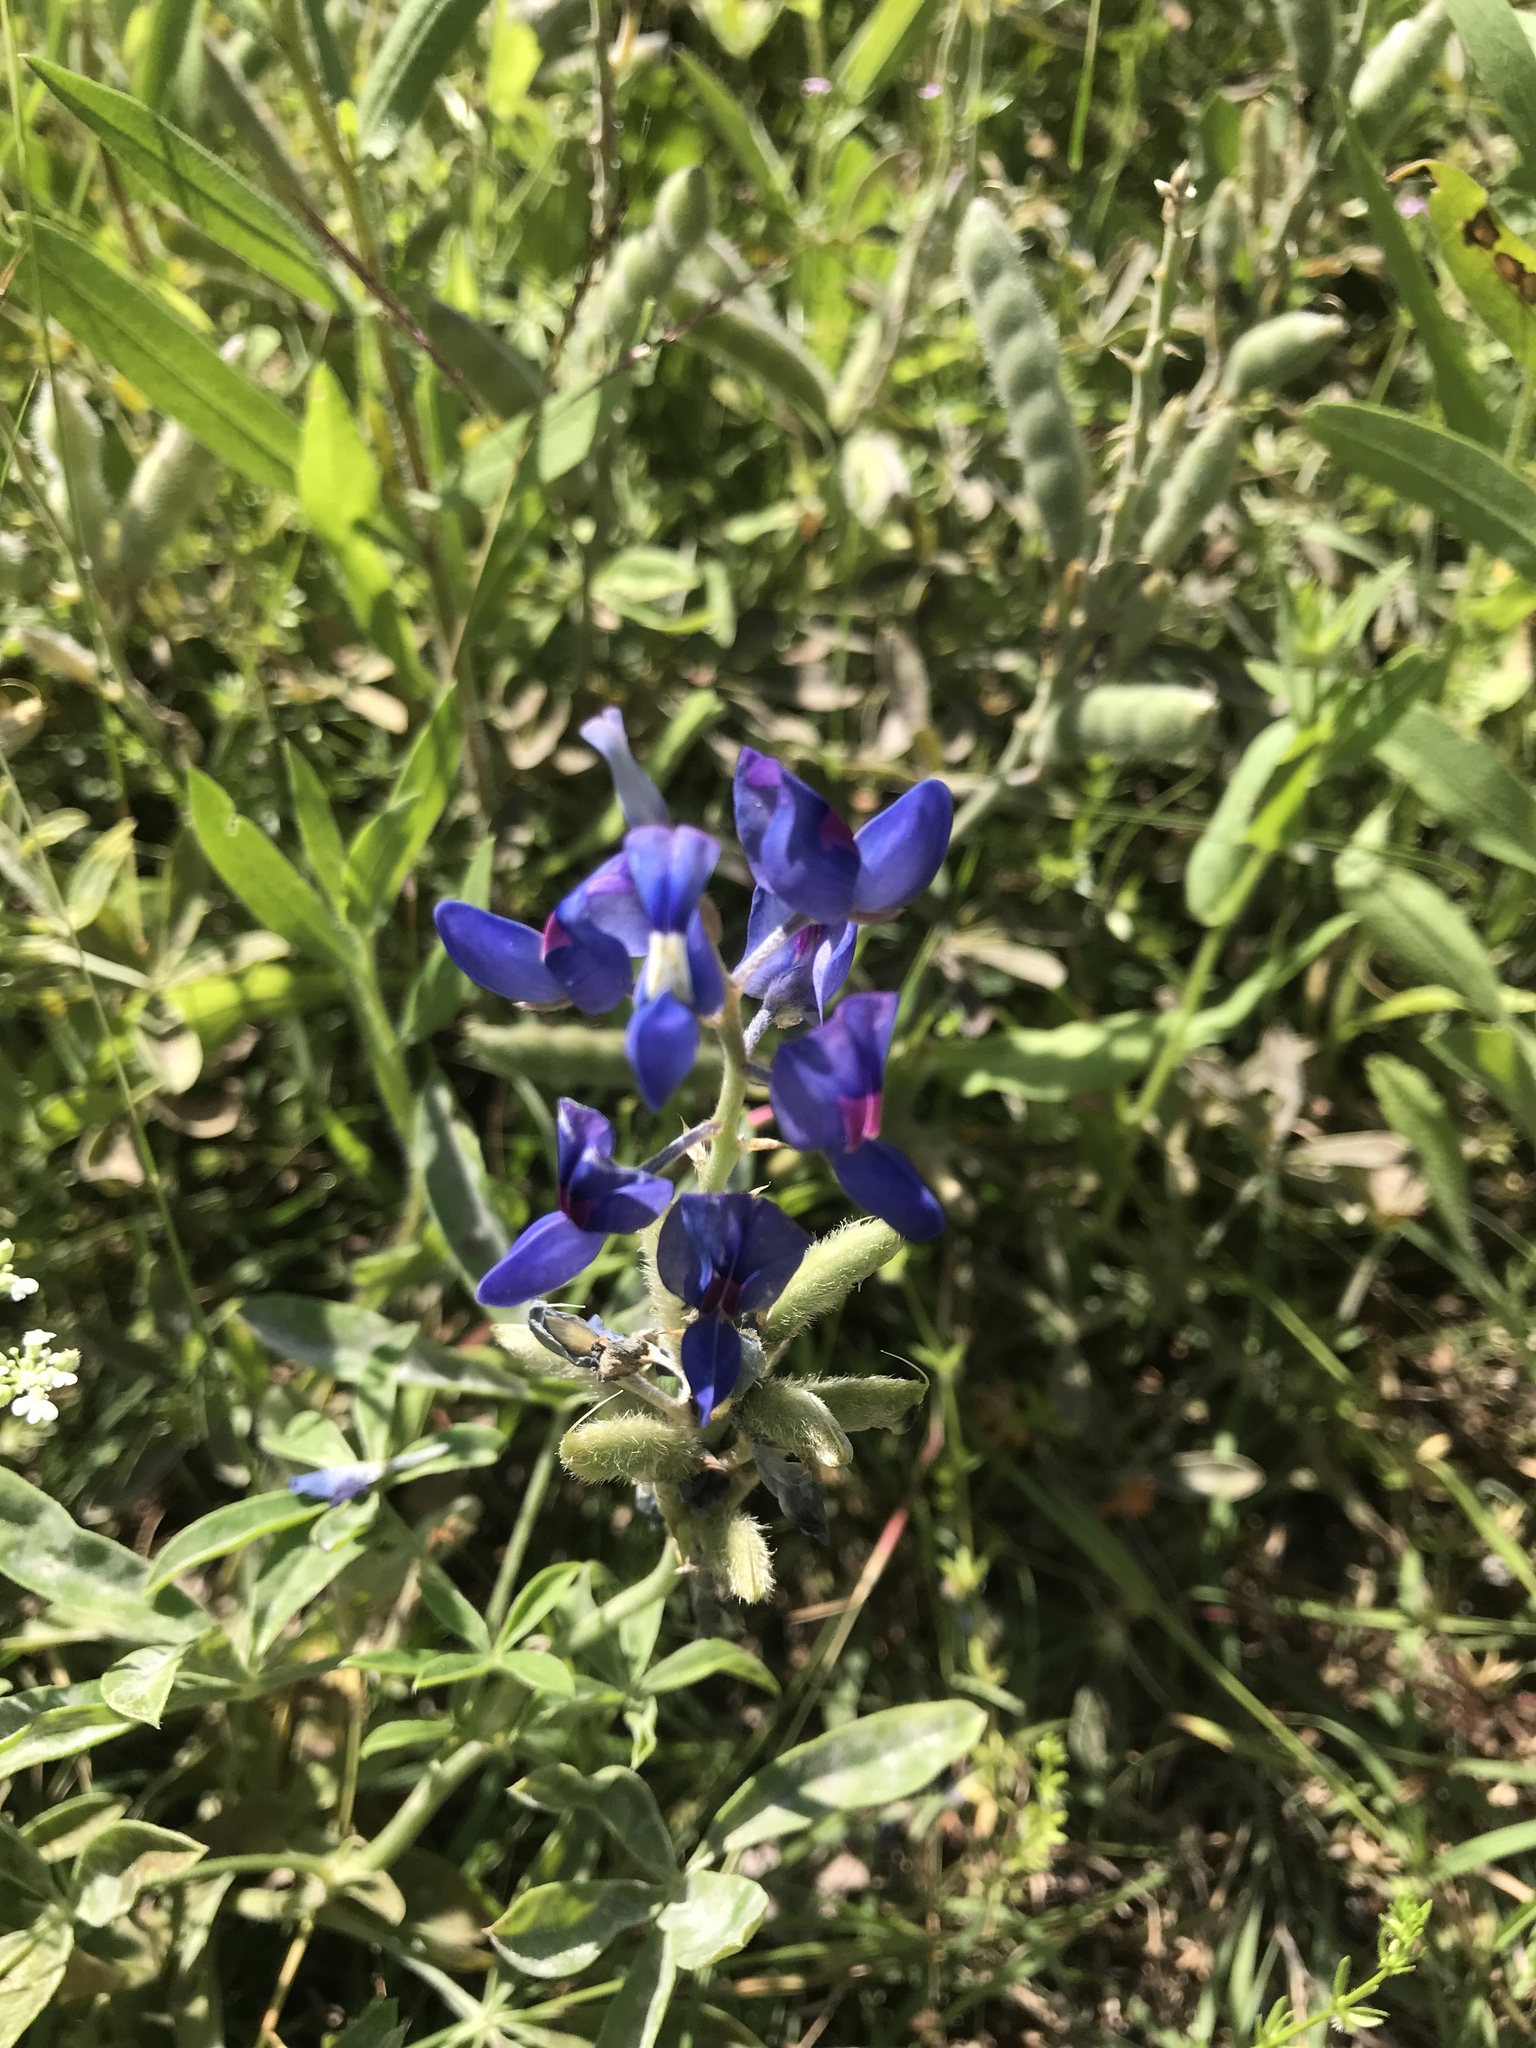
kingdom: Plantae
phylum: Tracheophyta
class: Magnoliopsida
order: Fabales
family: Fabaceae
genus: Lupinus
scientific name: Lupinus texensis
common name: Texas bluebonnet
